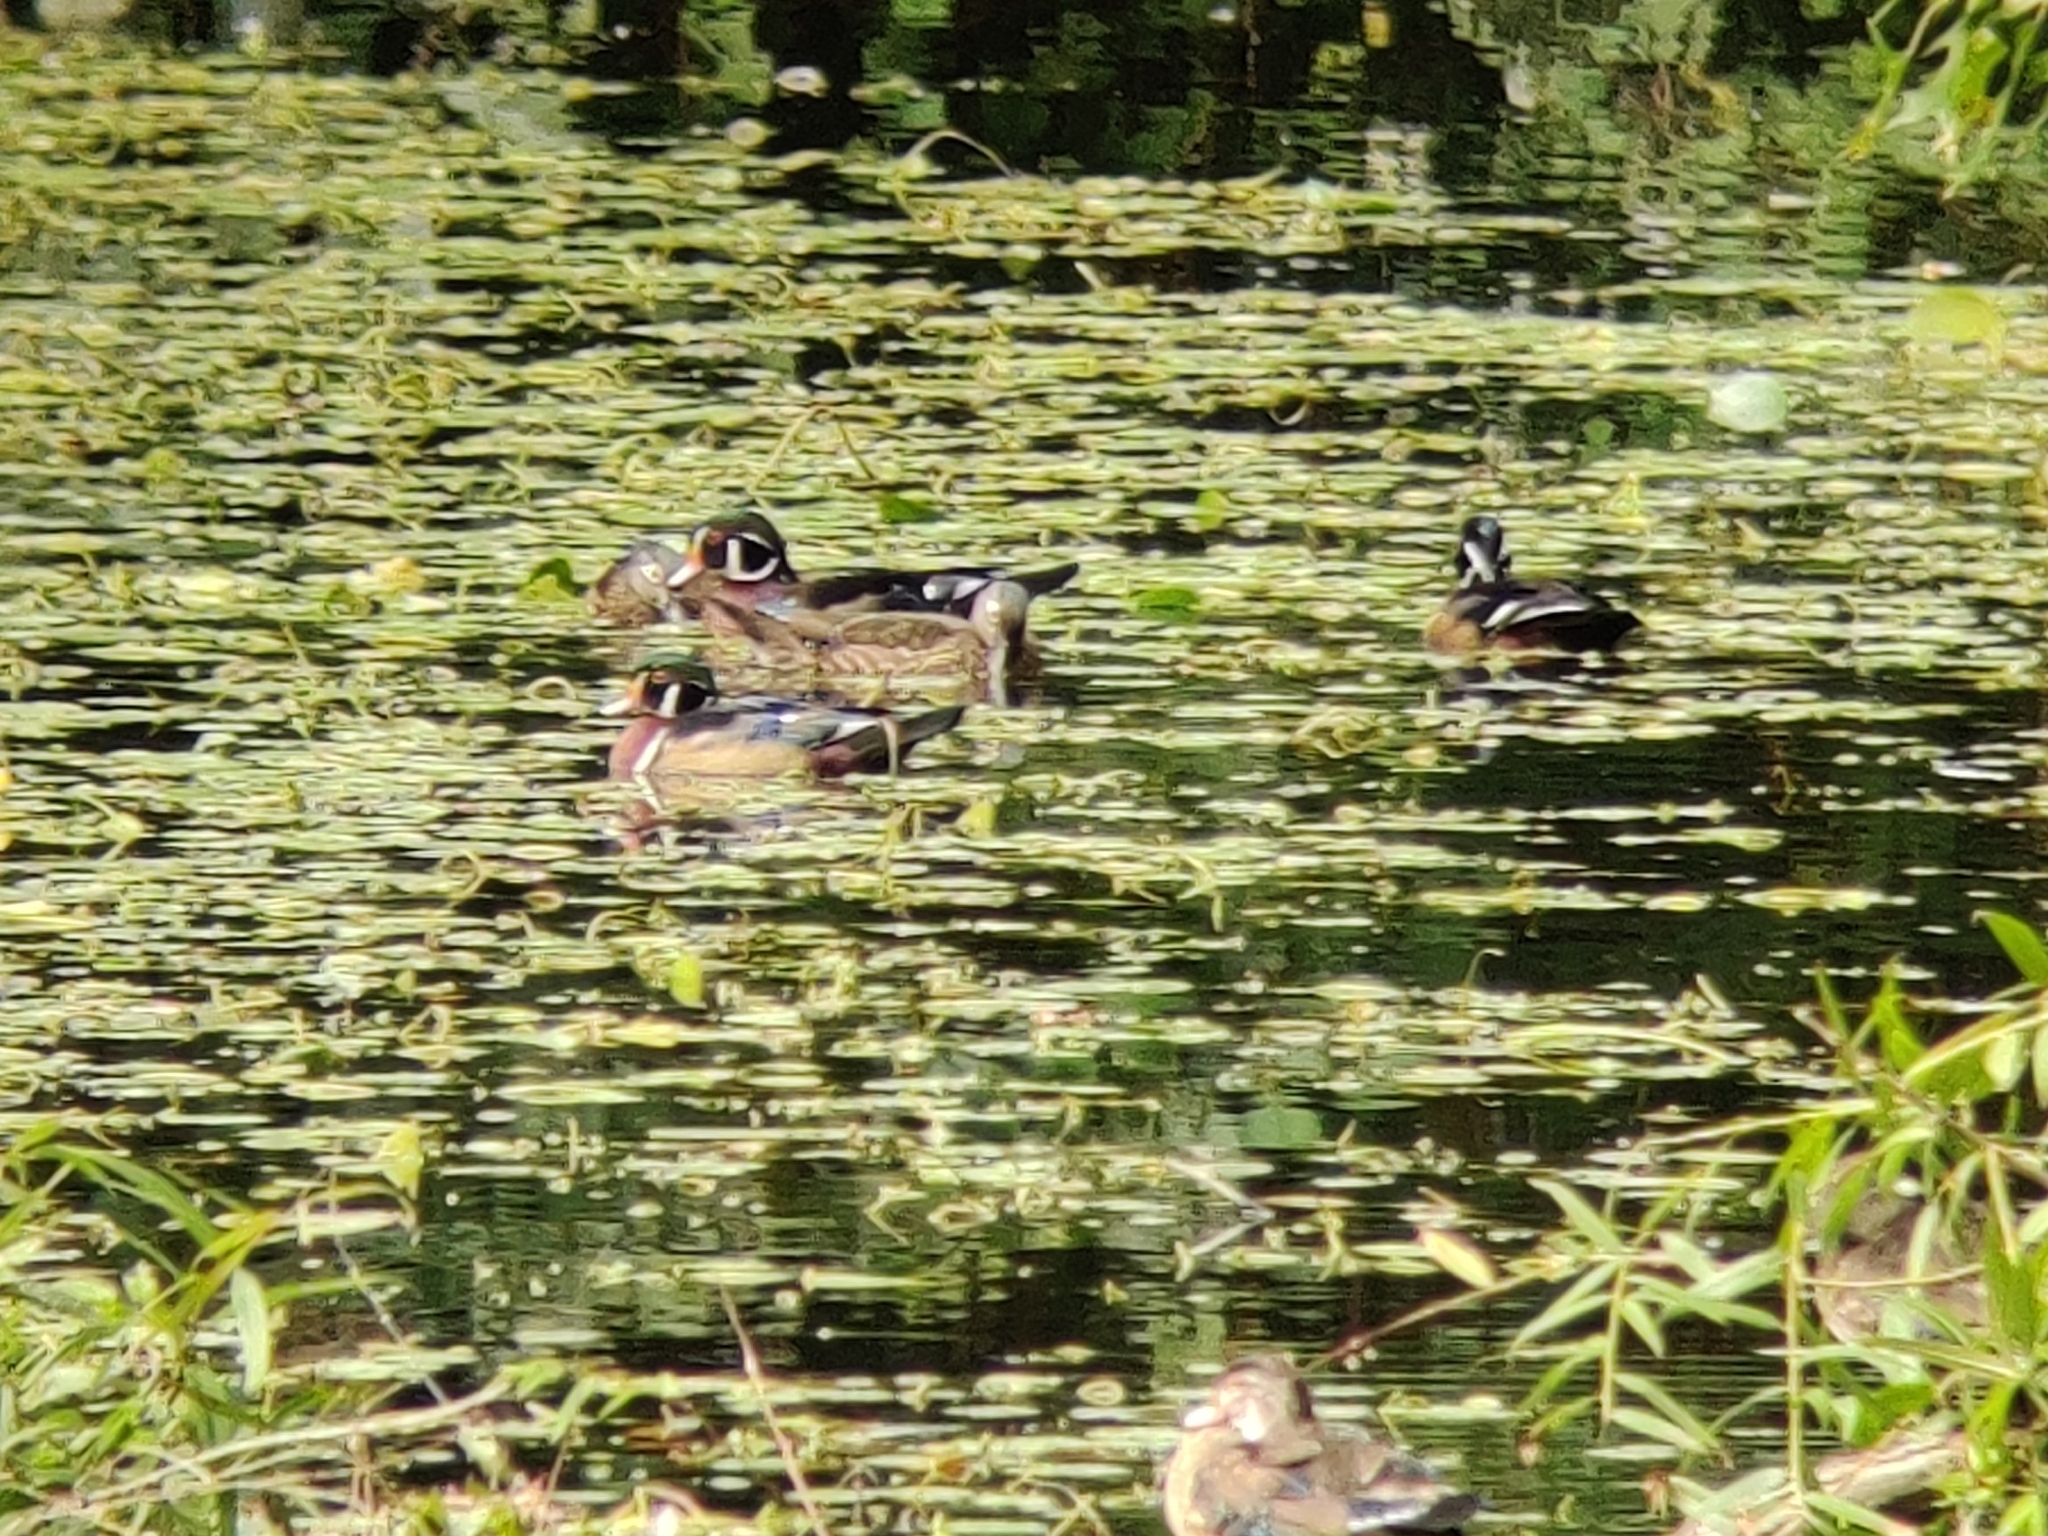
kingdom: Animalia
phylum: Chordata
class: Aves
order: Anseriformes
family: Anatidae
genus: Aix
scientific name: Aix sponsa
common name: Wood duck
